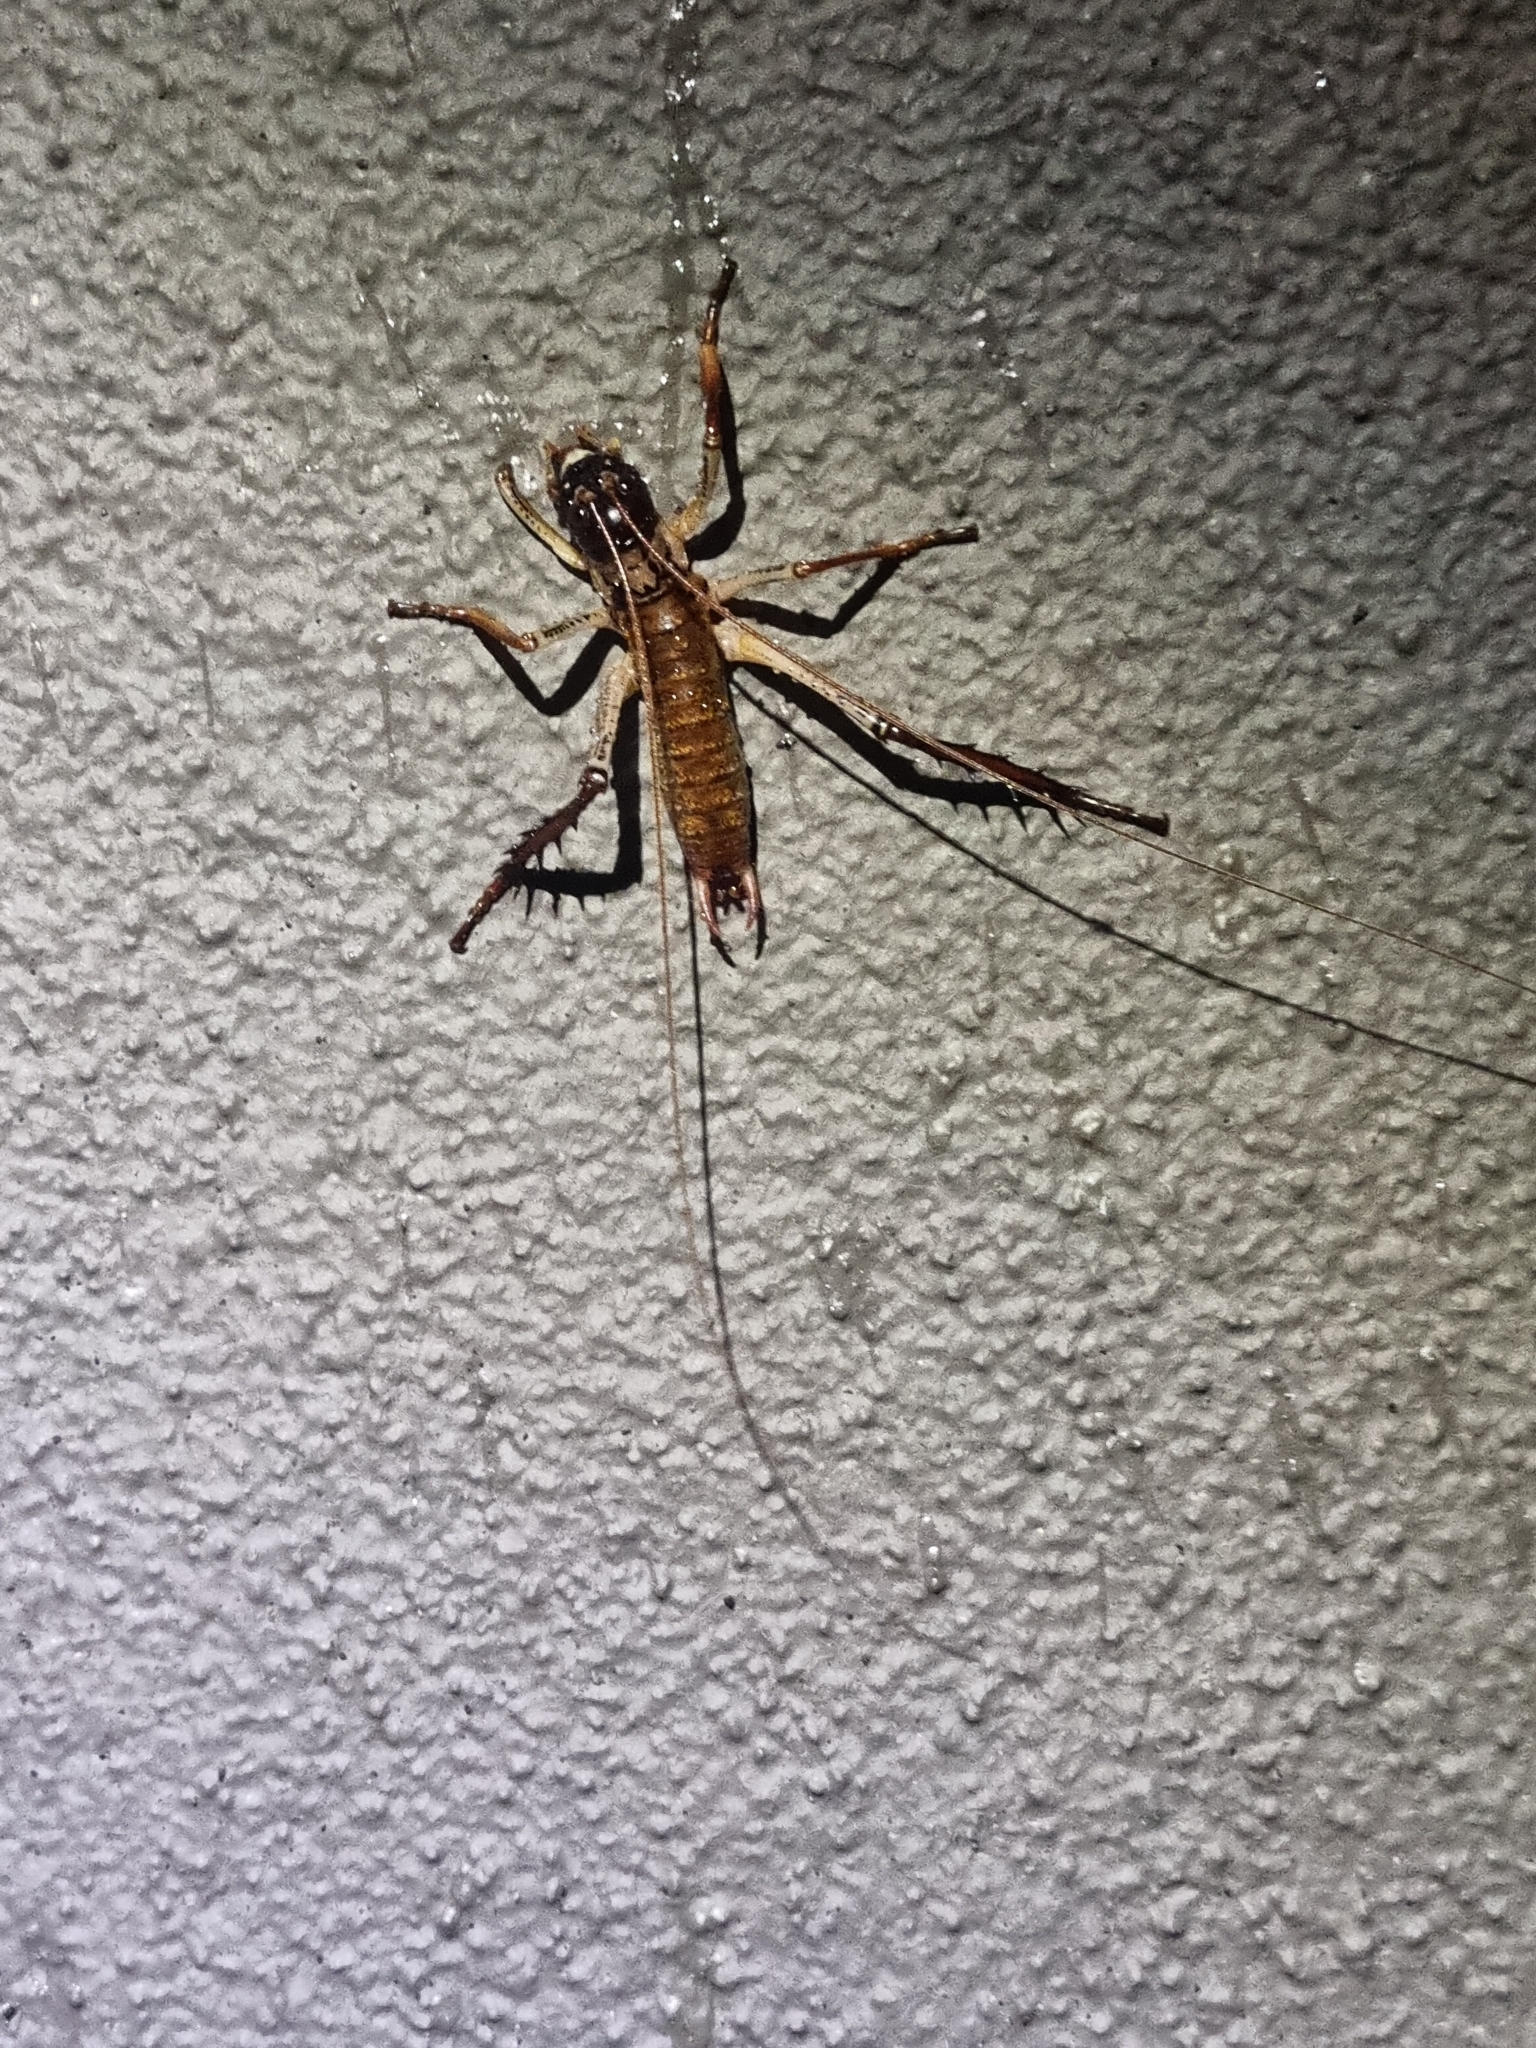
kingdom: Animalia
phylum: Arthropoda
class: Insecta
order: Orthoptera
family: Anostostomatidae
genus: Hemideina
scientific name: Hemideina thoracica
